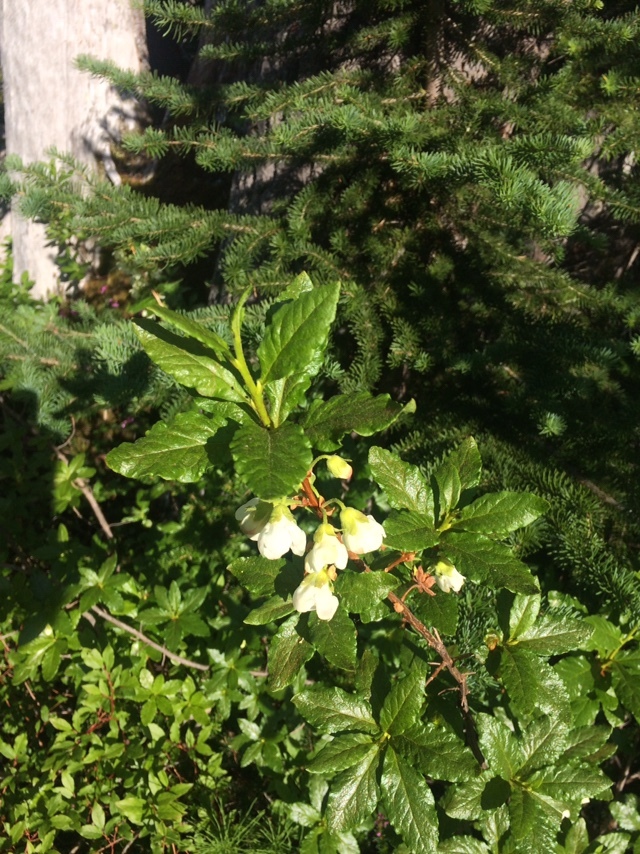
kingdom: Plantae
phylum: Tracheophyta
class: Magnoliopsida
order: Ericales
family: Ericaceae
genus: Rhododendron
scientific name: Rhododendron albiflorum
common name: White rhododendron
